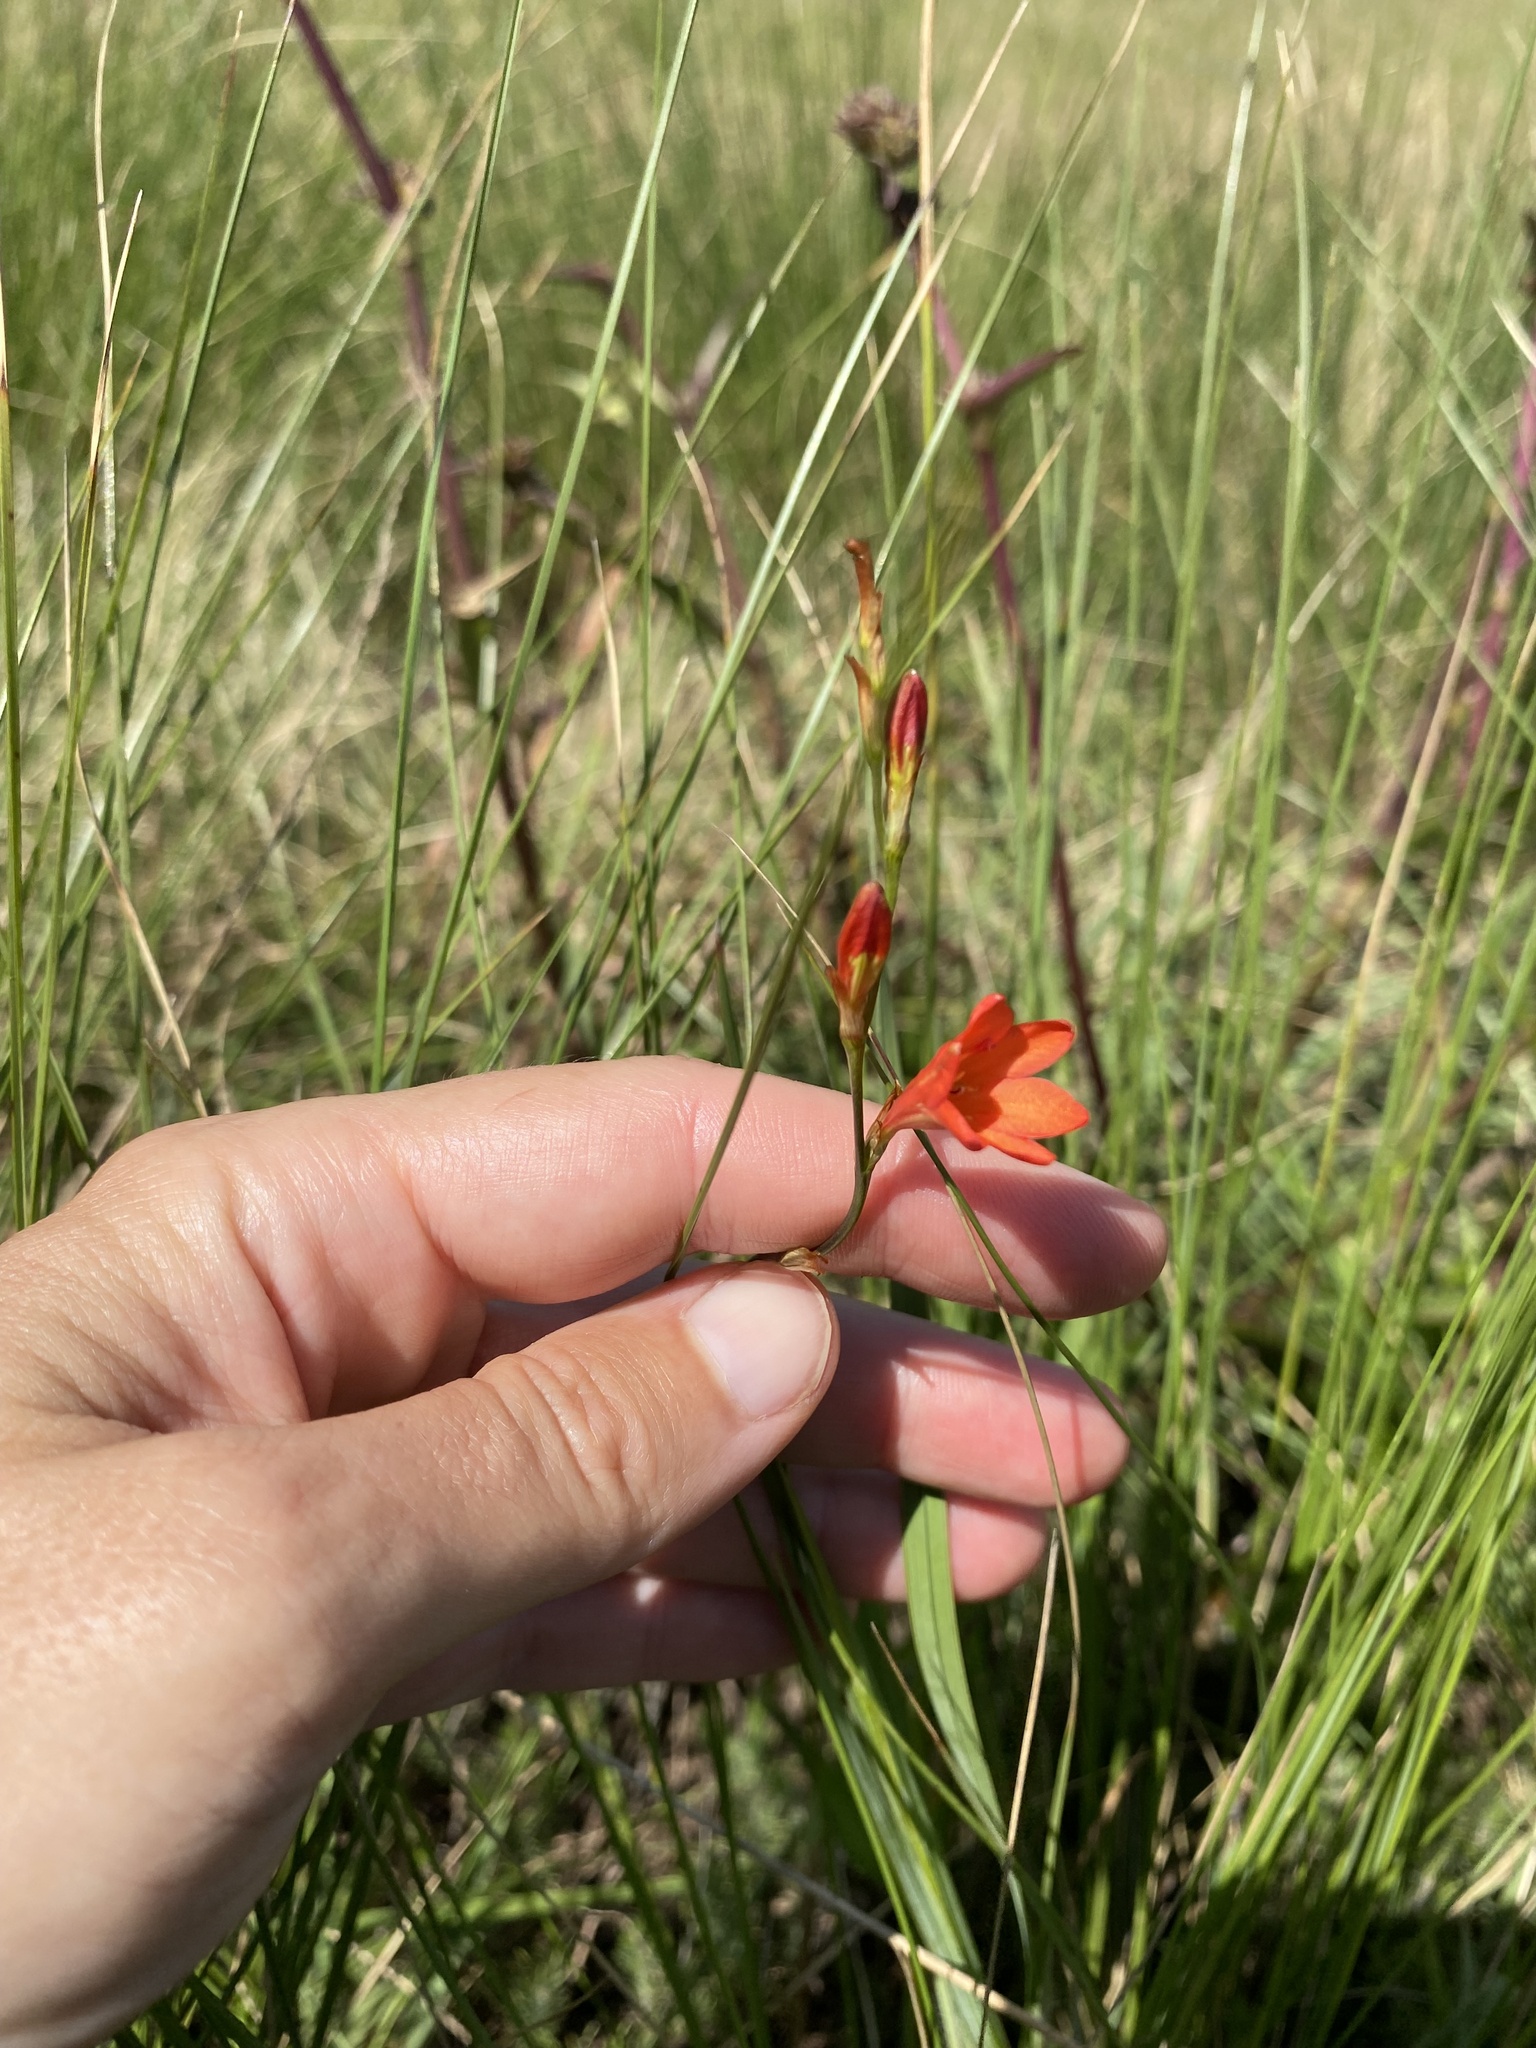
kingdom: Plantae
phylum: Tracheophyta
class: Liliopsida
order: Asparagales
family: Iridaceae
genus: Tritonia
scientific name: Tritonia disticha
